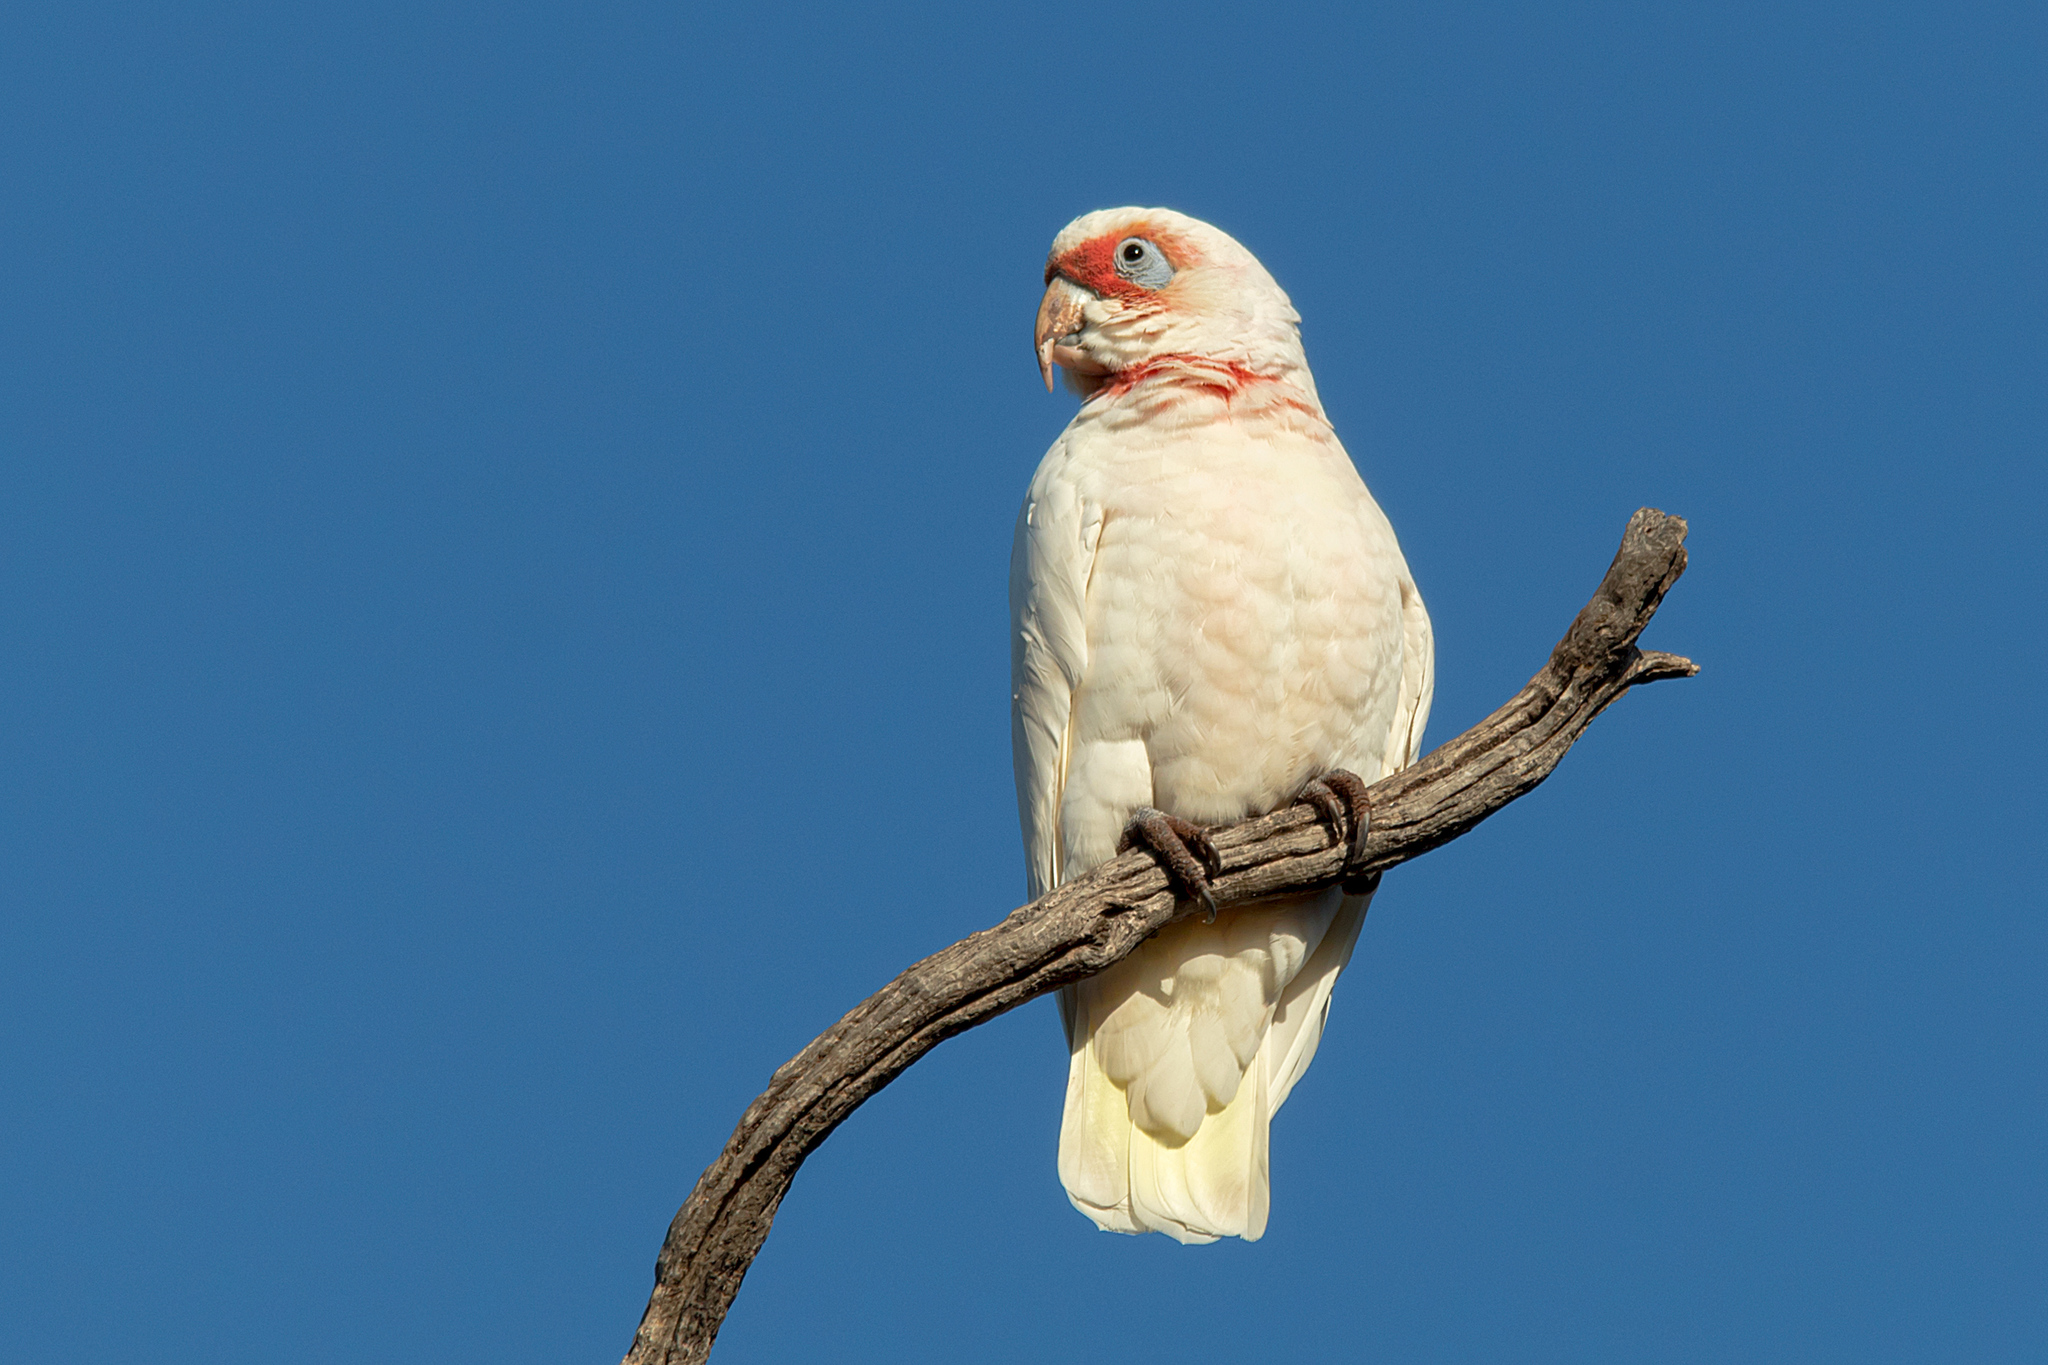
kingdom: Animalia
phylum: Chordata
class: Aves
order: Psittaciformes
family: Psittacidae
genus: Cacatua
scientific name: Cacatua tenuirostris
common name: Long-billed corella
